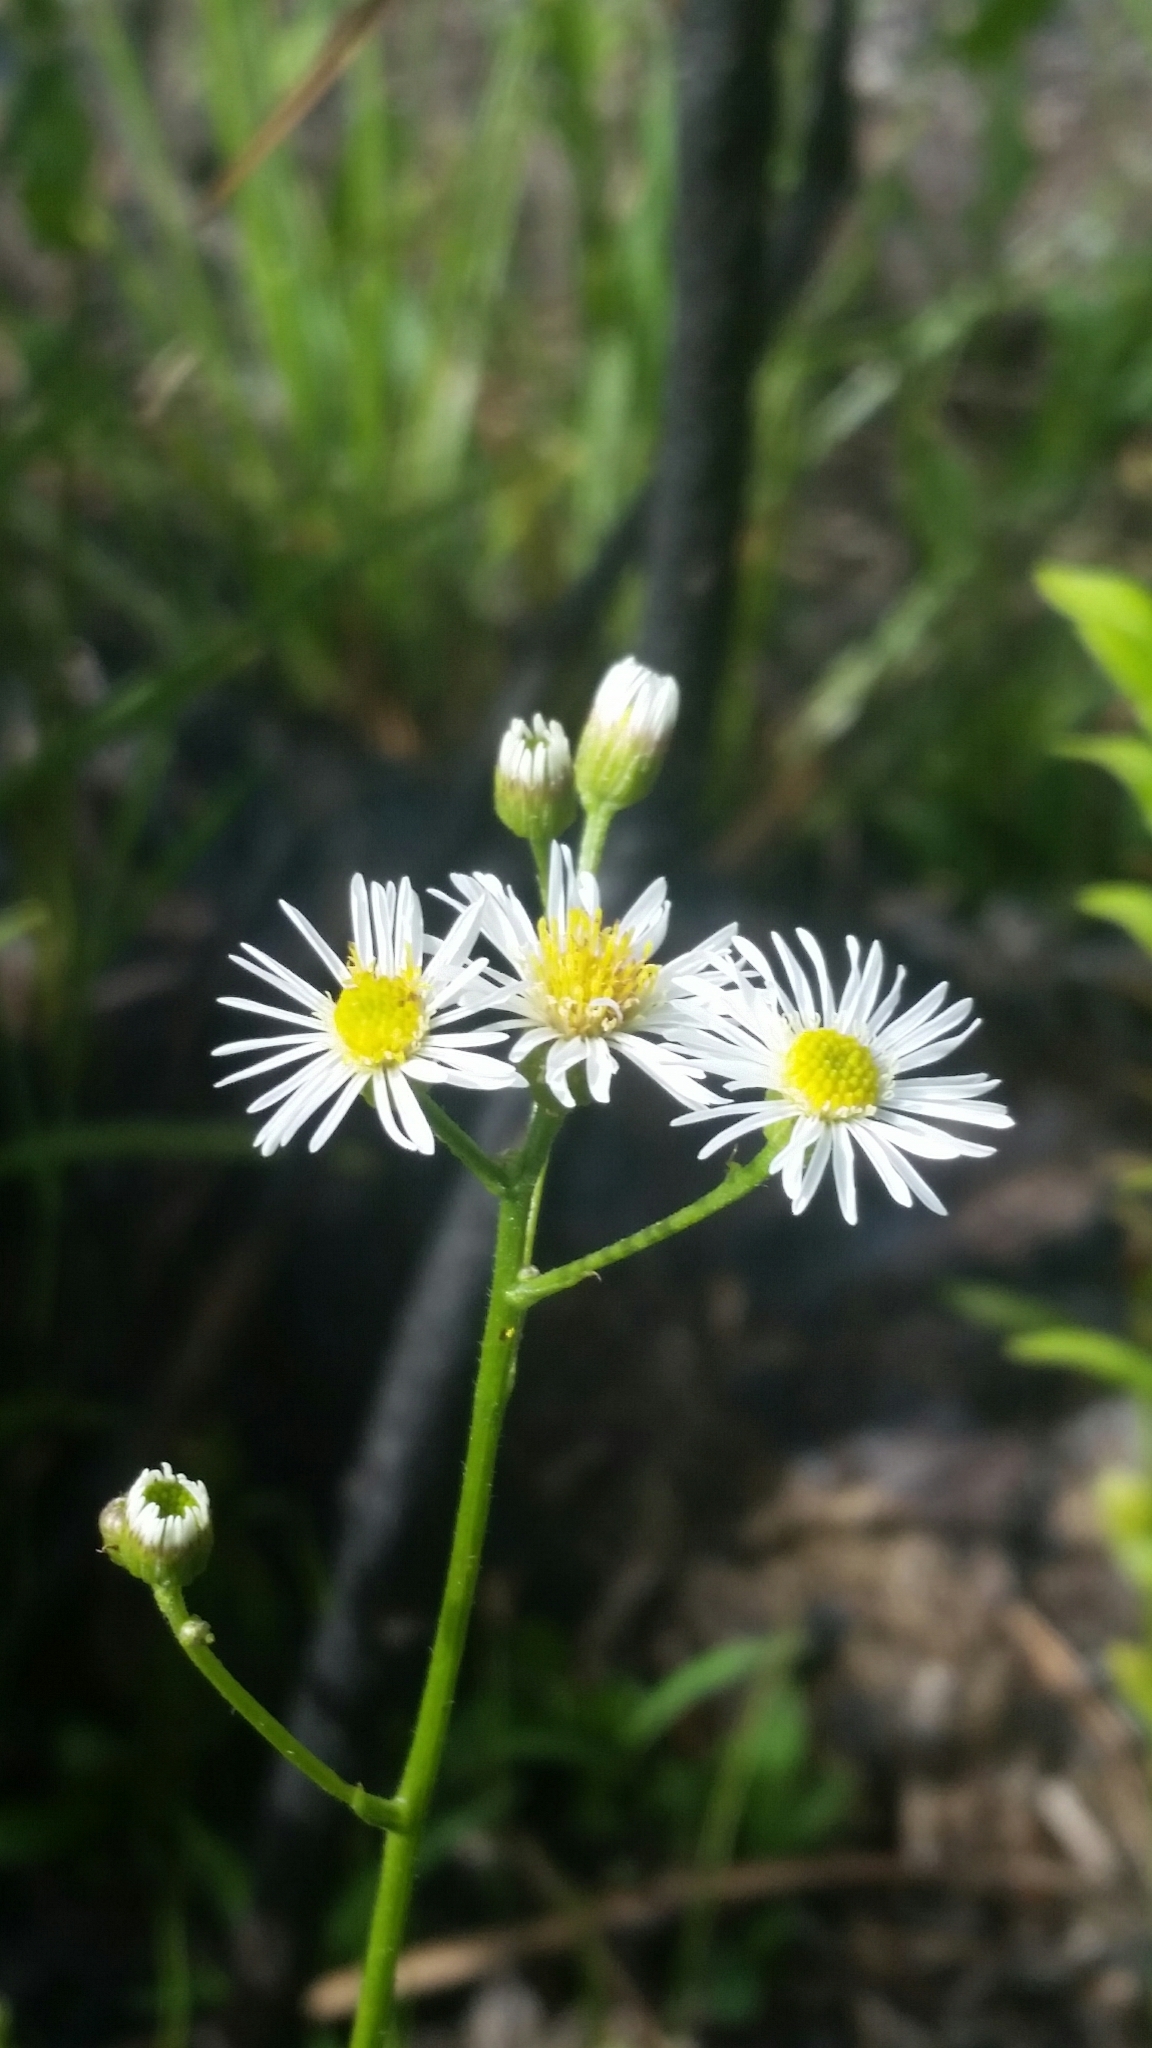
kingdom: Plantae
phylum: Tracheophyta
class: Magnoliopsida
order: Asterales
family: Asteraceae
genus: Erigeron
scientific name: Erigeron vernus
